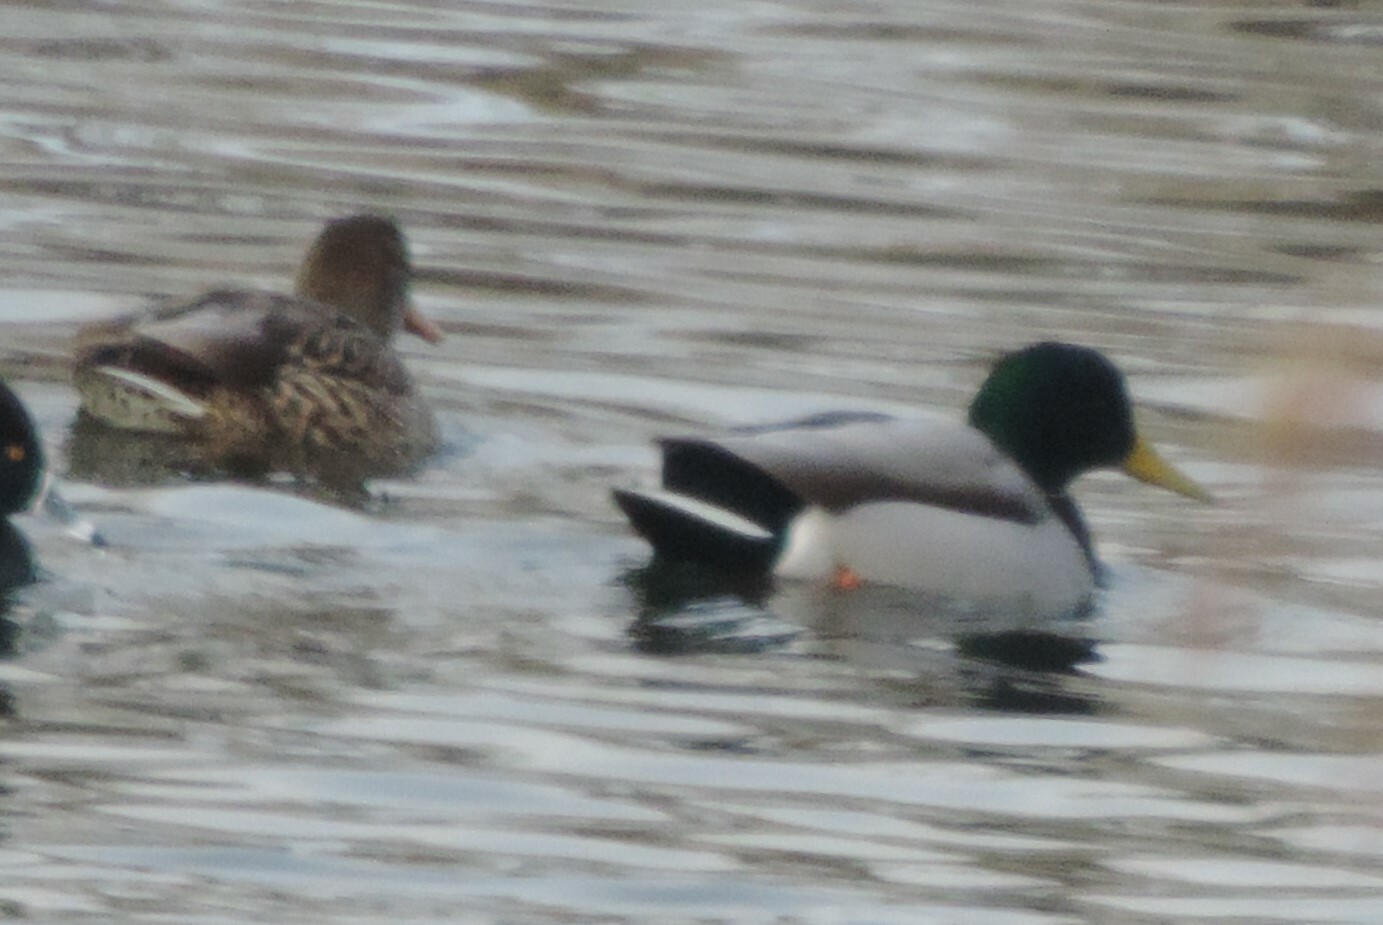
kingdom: Animalia
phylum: Chordata
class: Aves
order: Anseriformes
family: Anatidae
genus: Anas
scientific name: Anas platyrhynchos
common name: Mallard
